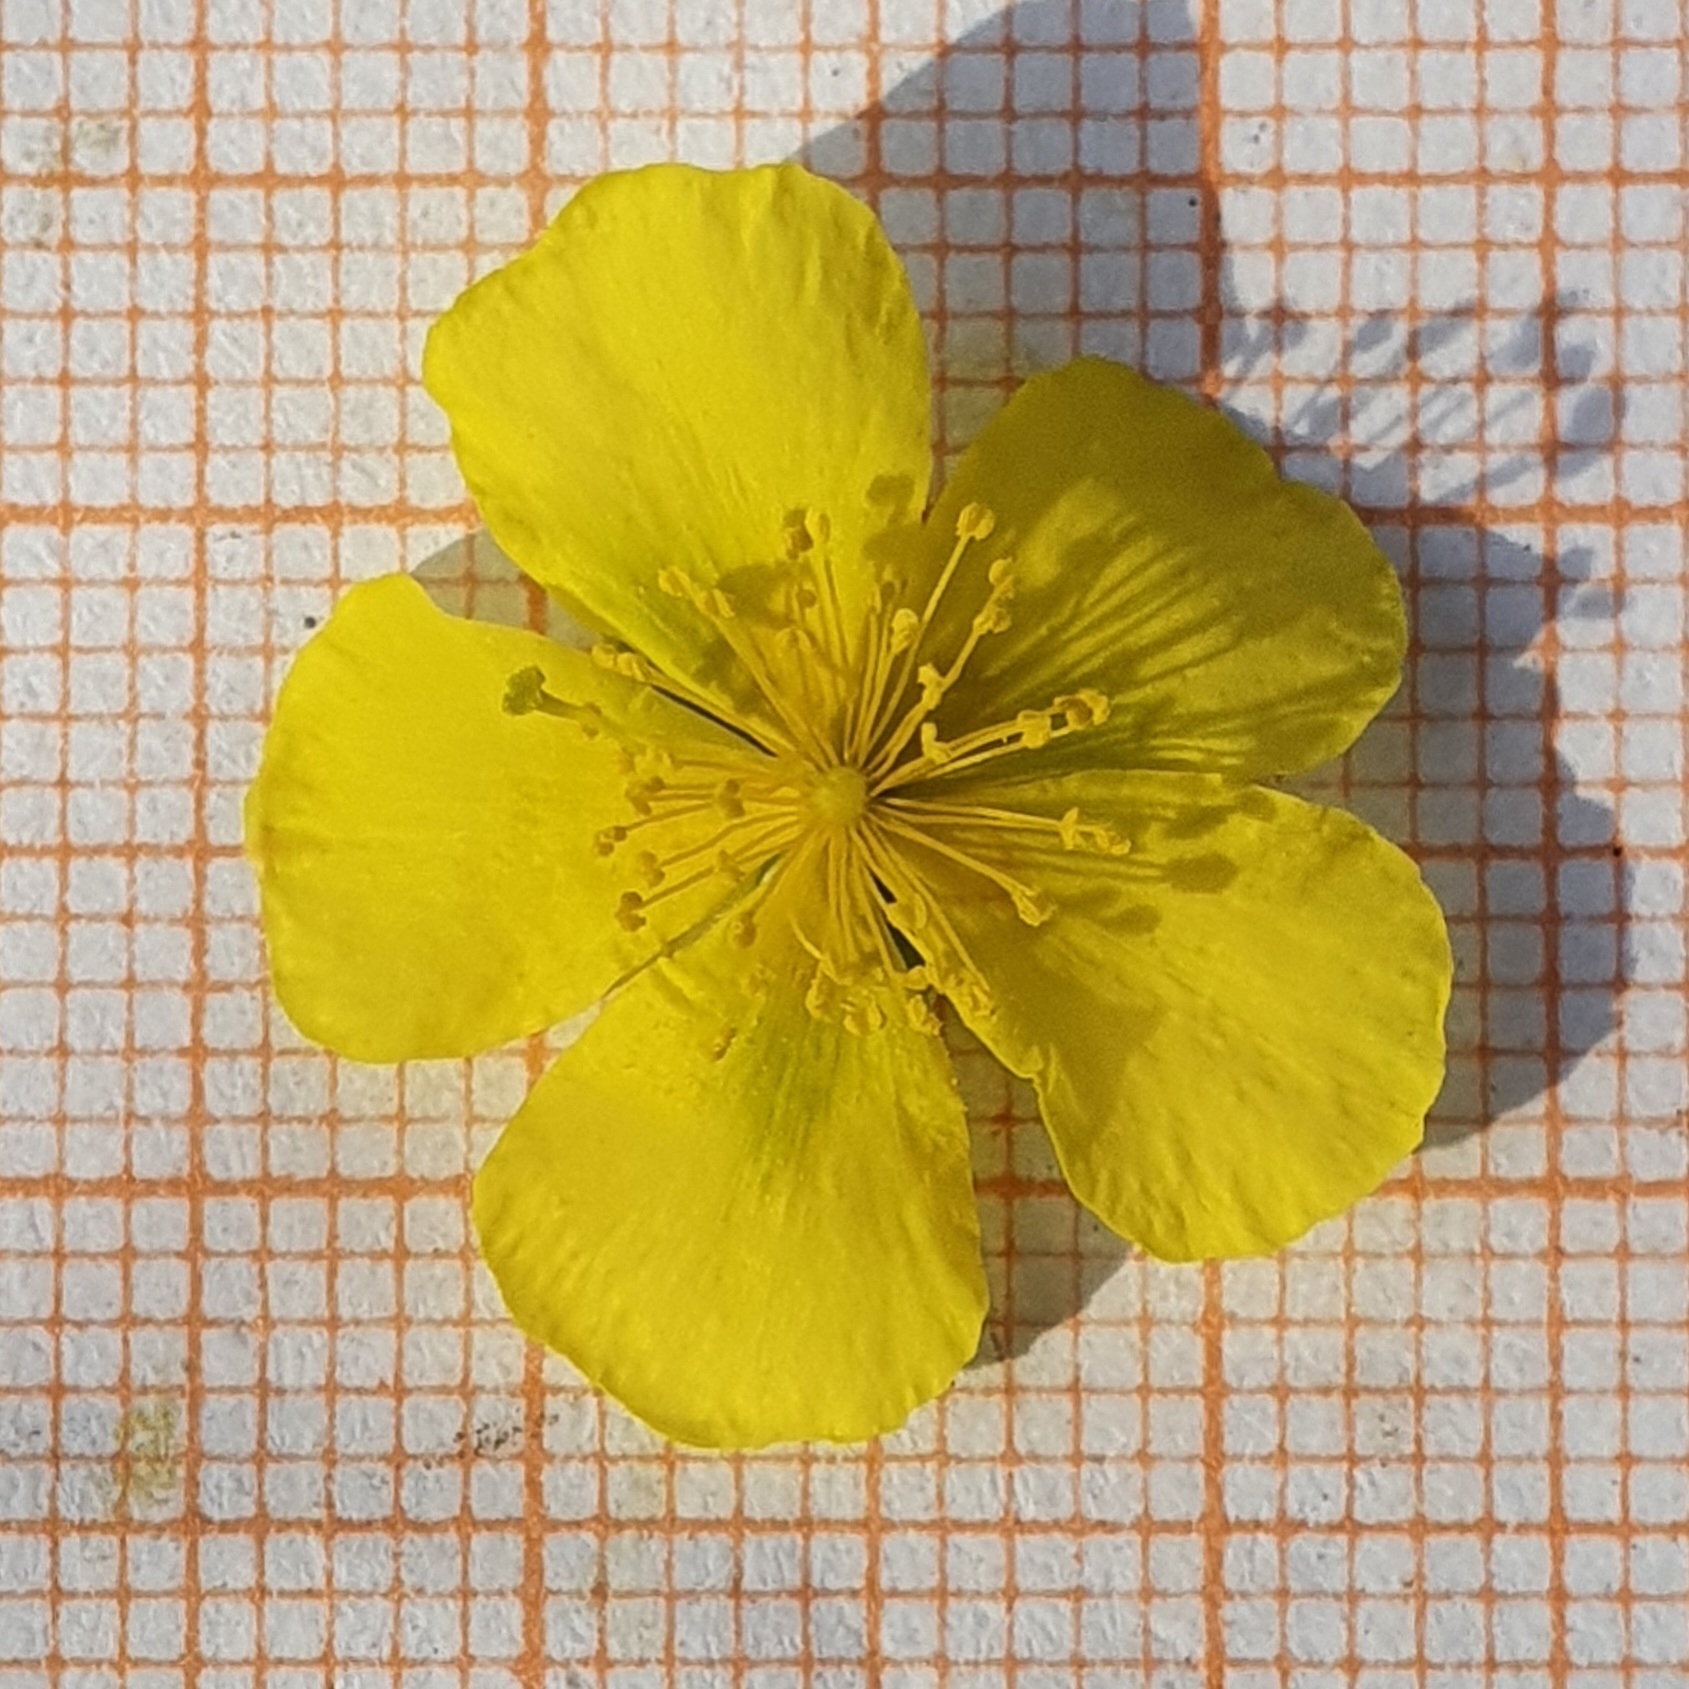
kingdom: Plantae
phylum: Tracheophyta
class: Magnoliopsida
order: Malvales
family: Cistaceae
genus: Helianthemum
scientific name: Helianthemum syriacum
